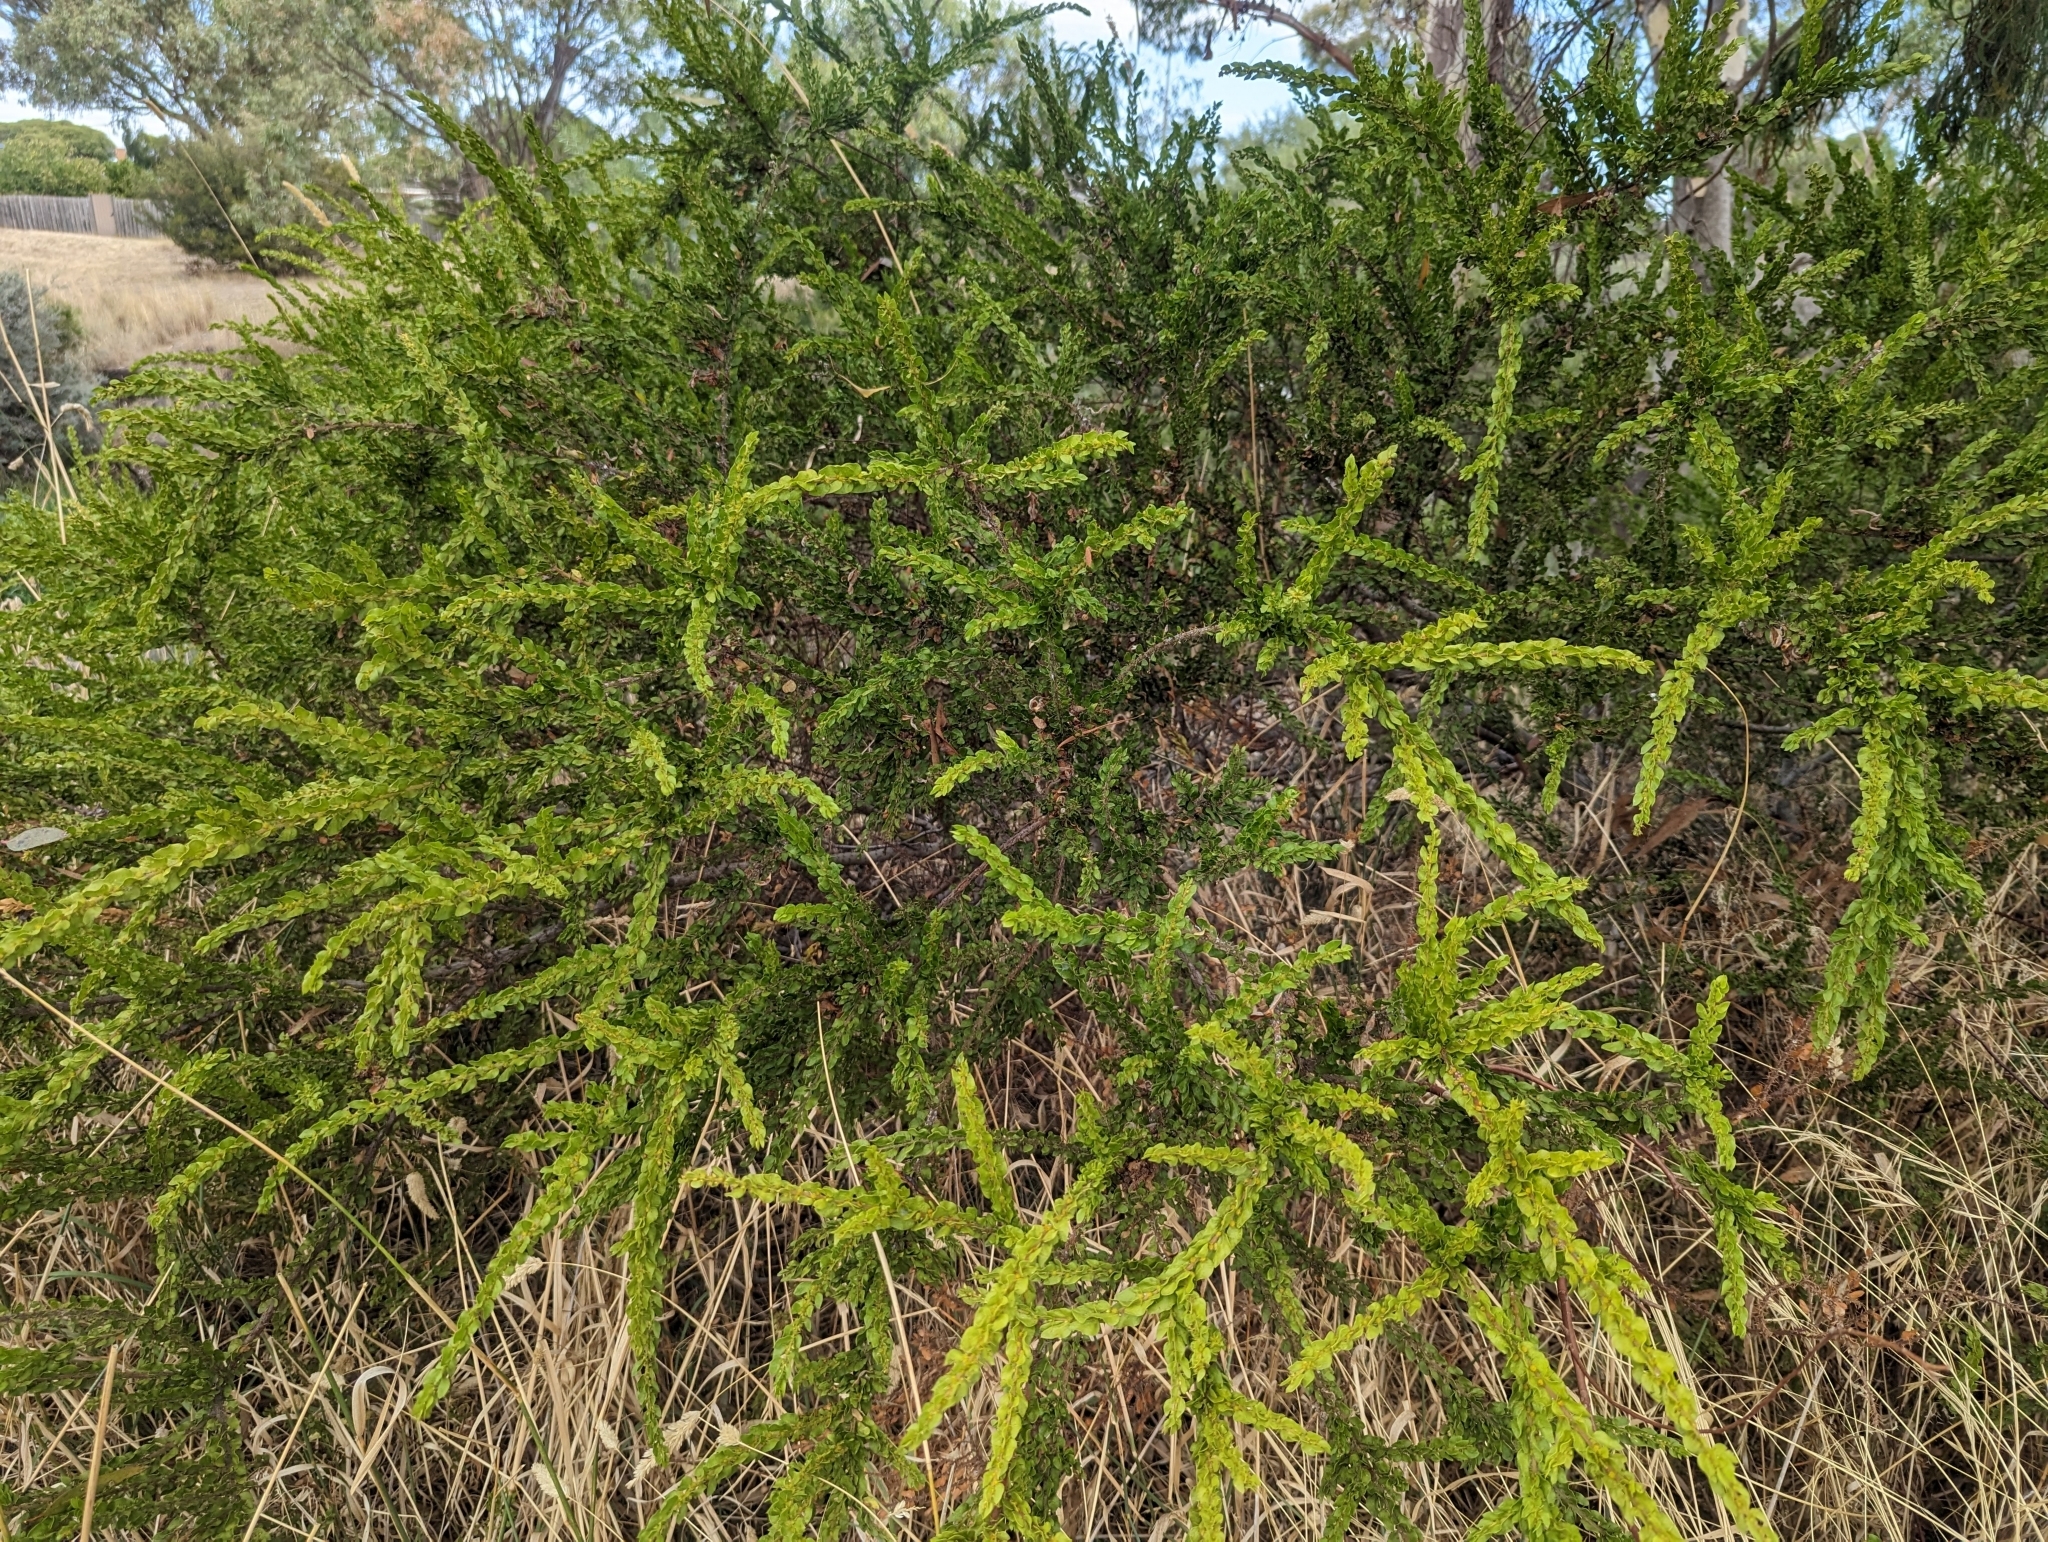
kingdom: Plantae
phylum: Tracheophyta
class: Magnoliopsida
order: Fabales
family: Fabaceae
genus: Acacia
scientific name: Acacia paradoxa
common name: Paradox acacia
